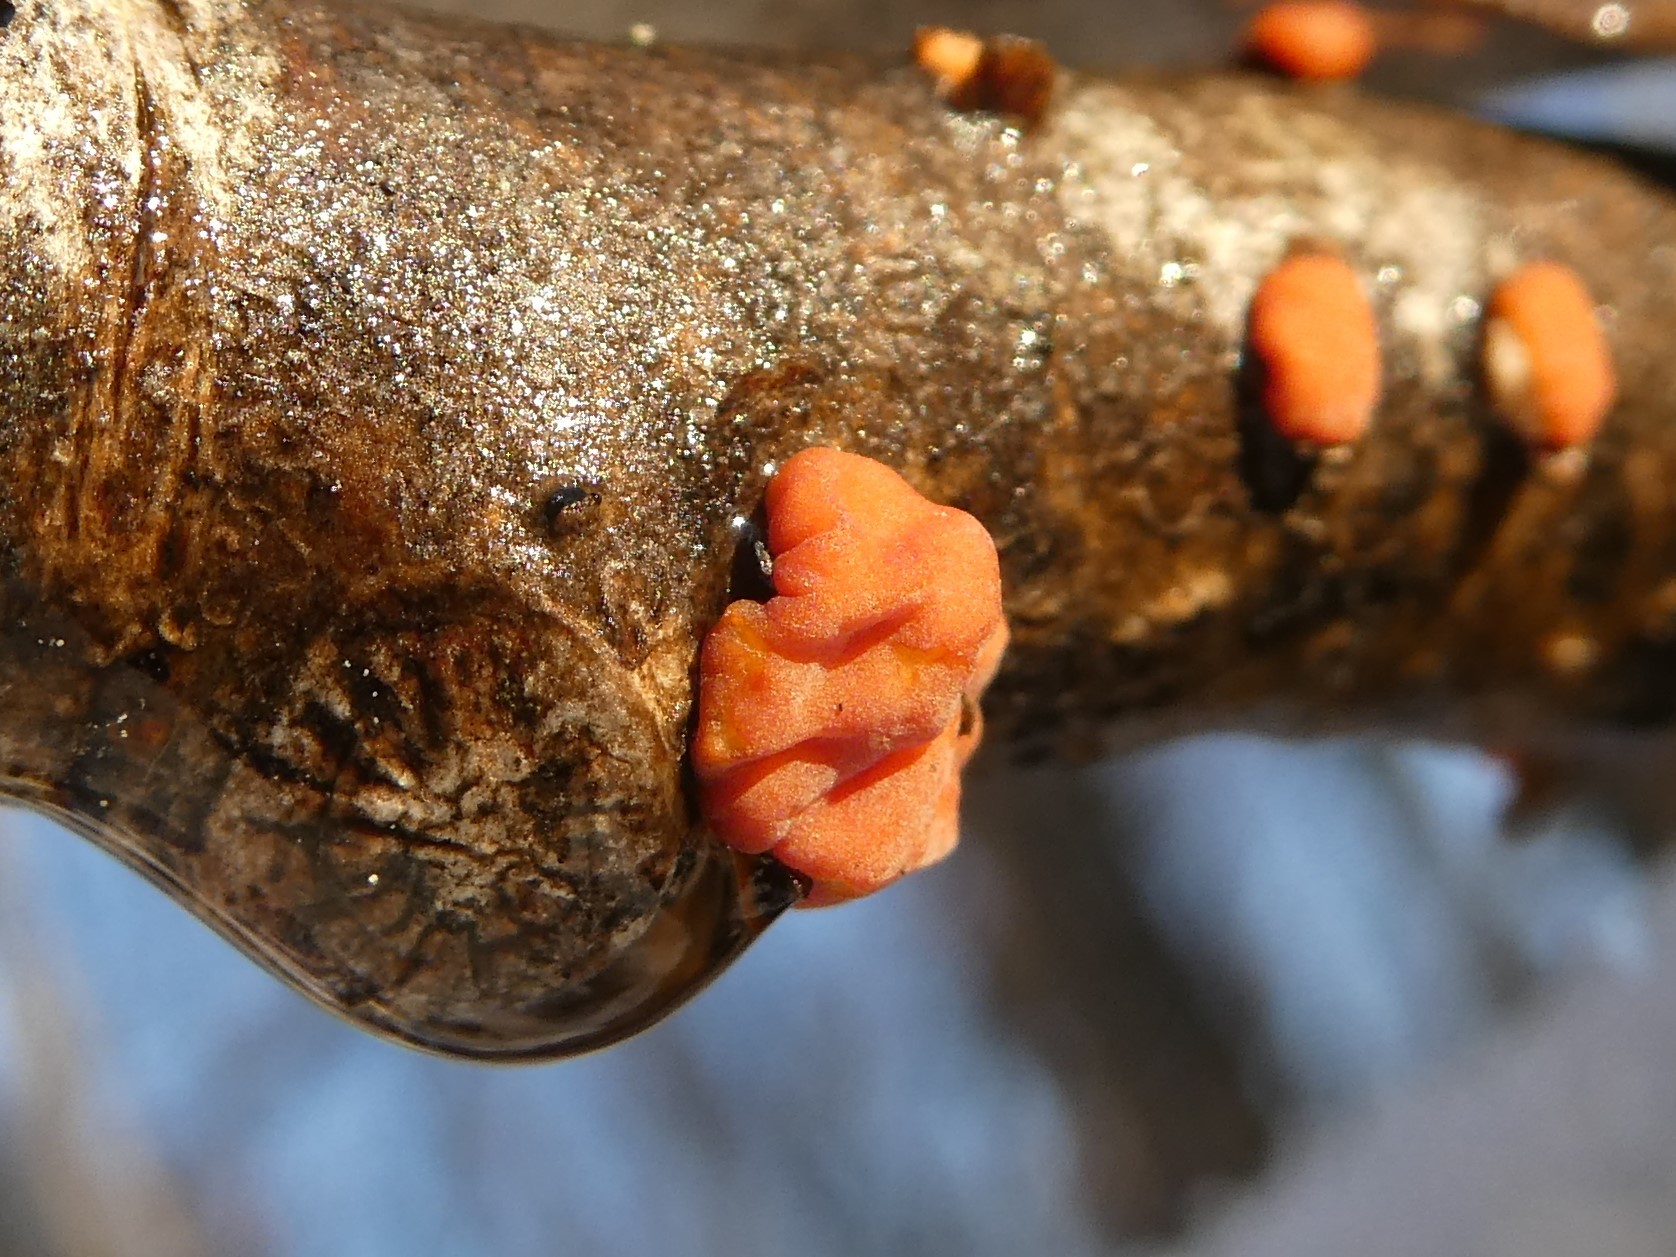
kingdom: Fungi
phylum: Basidiomycota
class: Agaricomycetes
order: Russulales
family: Peniophoraceae
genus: Peniophora
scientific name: Peniophora rufa
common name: Red tree brain fungus
